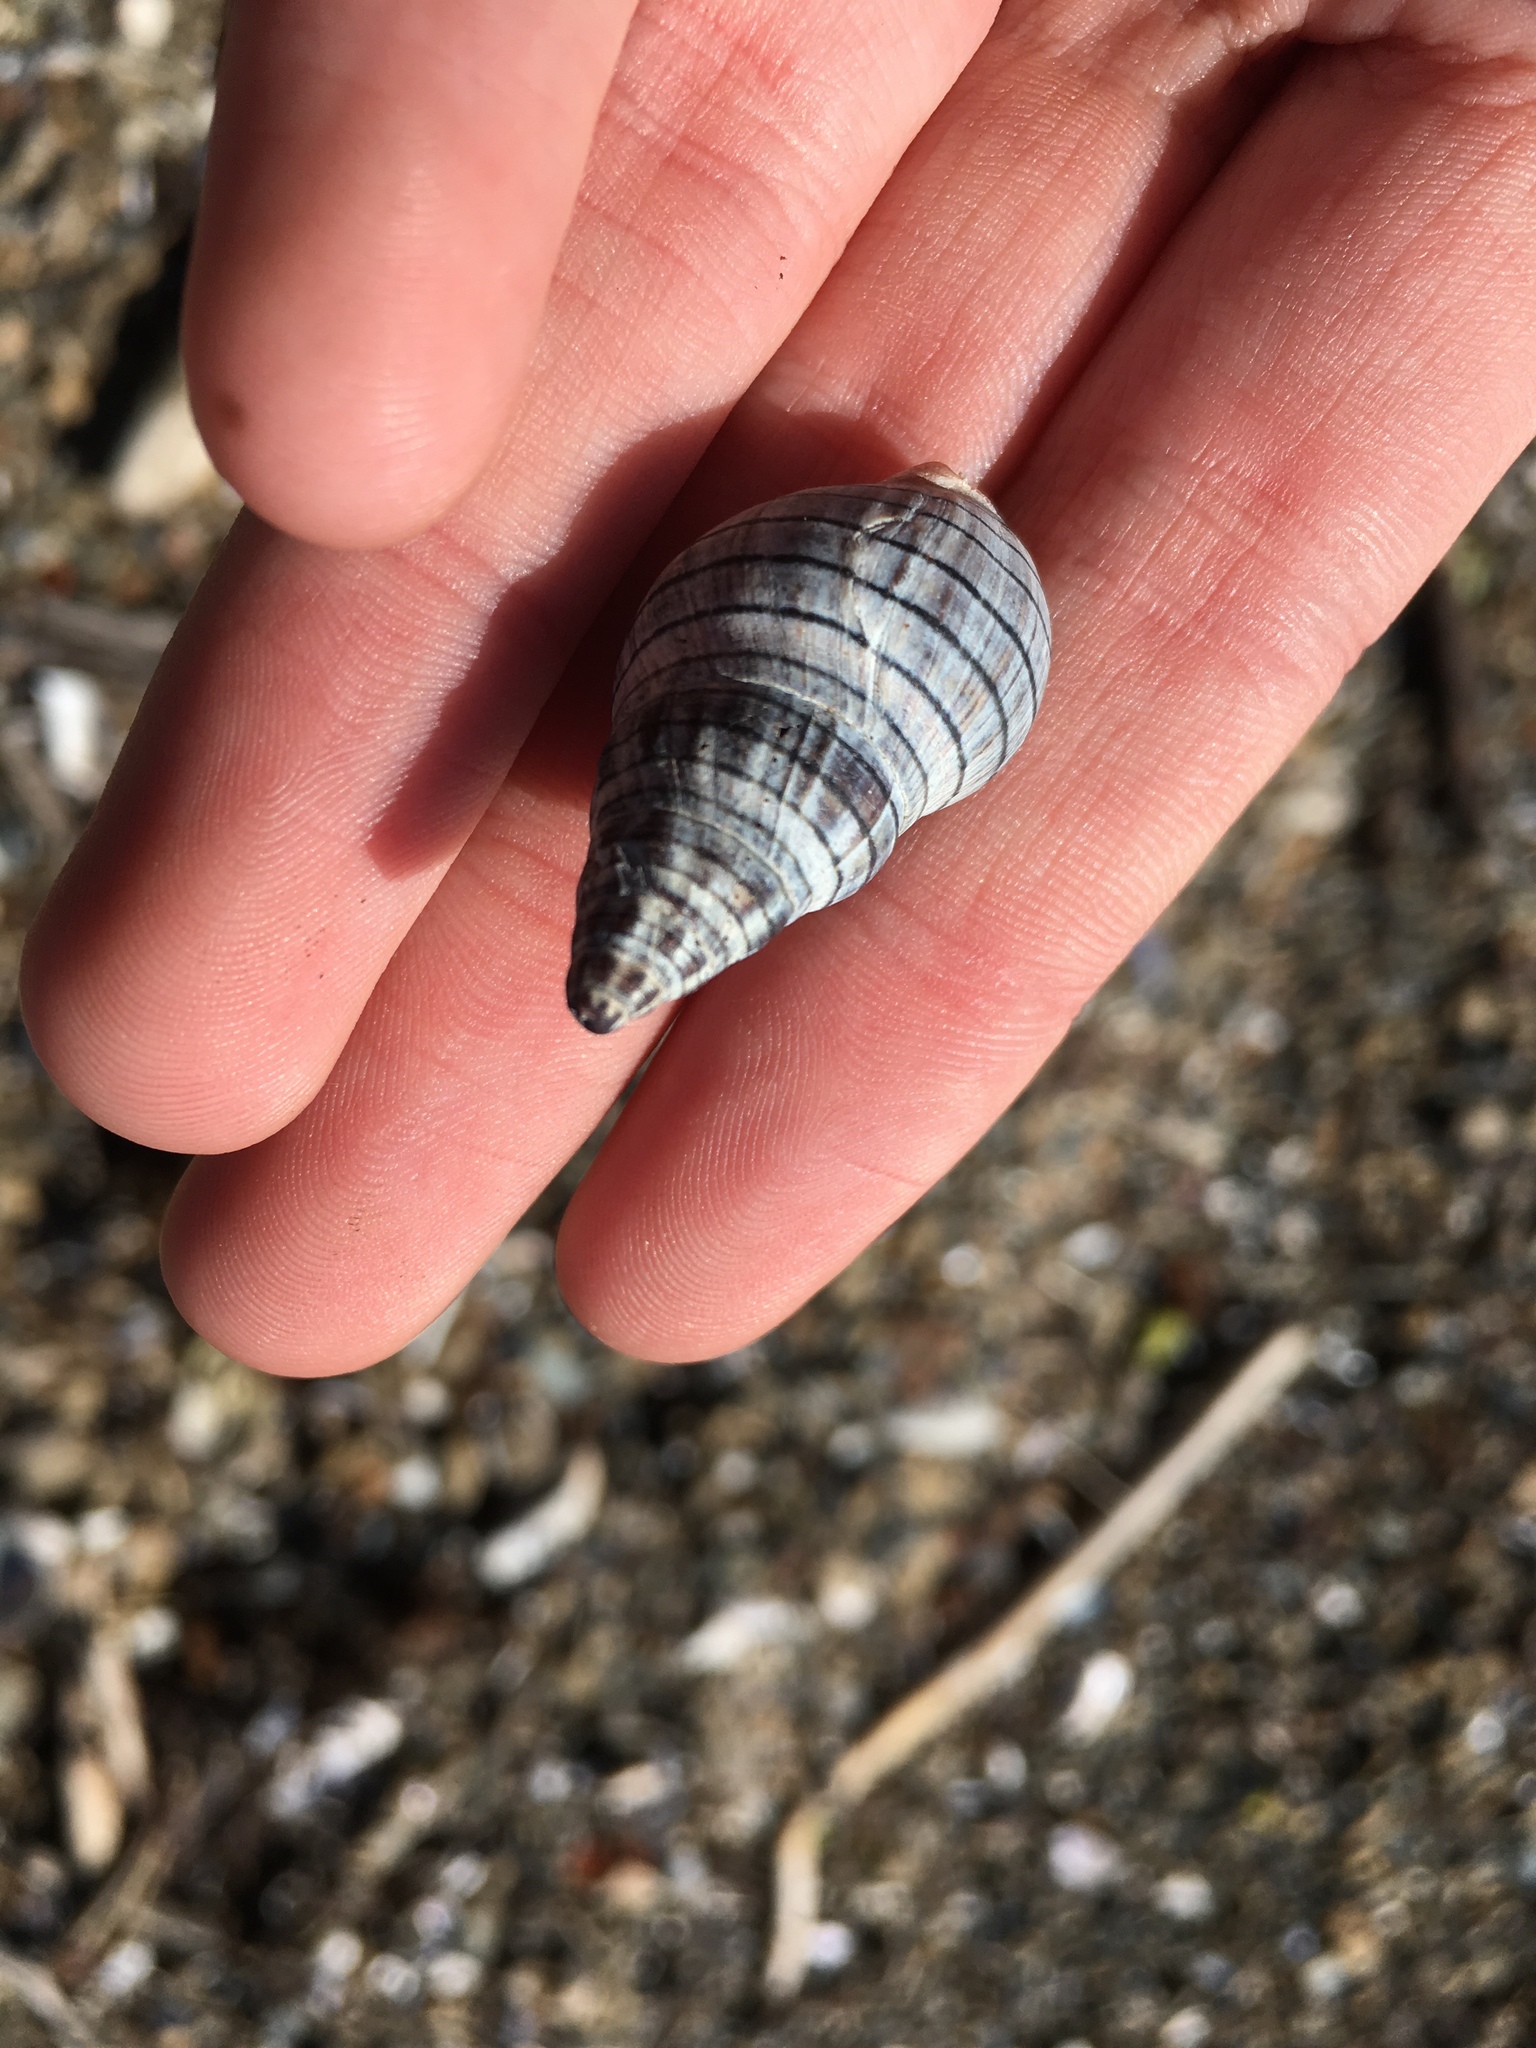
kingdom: Animalia
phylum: Mollusca
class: Gastropoda
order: Neogastropoda
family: Cominellidae
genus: Cominella
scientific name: Cominella virgata
